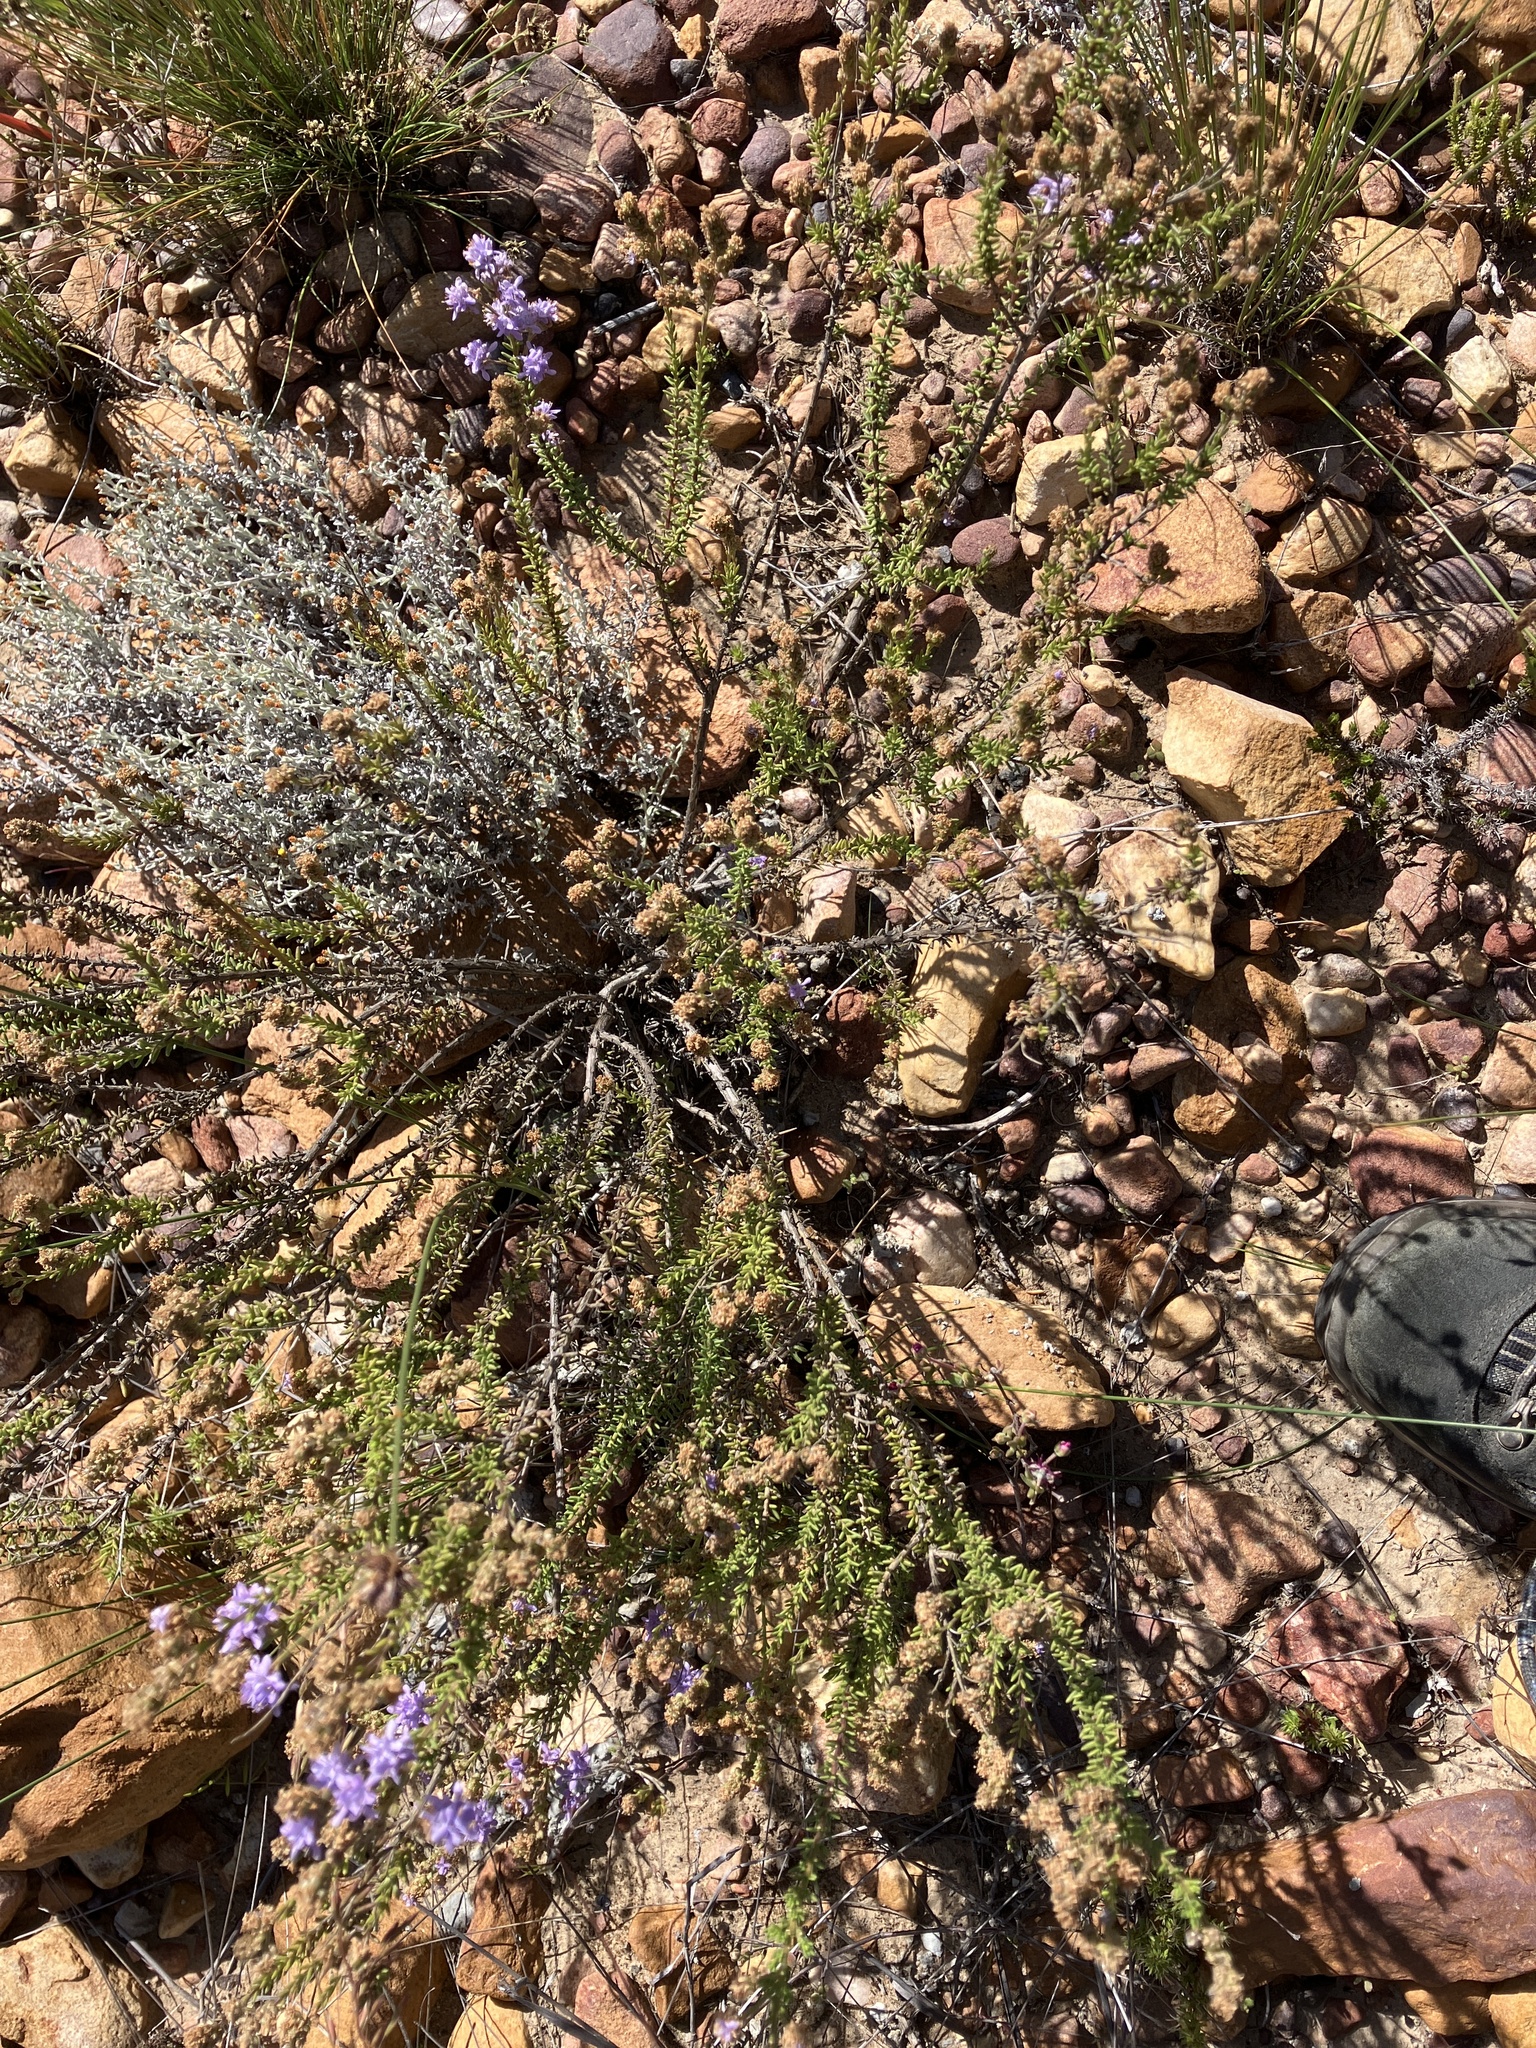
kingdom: Plantae
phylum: Tracheophyta
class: Magnoliopsida
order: Lamiales
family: Scrophulariaceae
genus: Selago
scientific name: Selago burchellii
